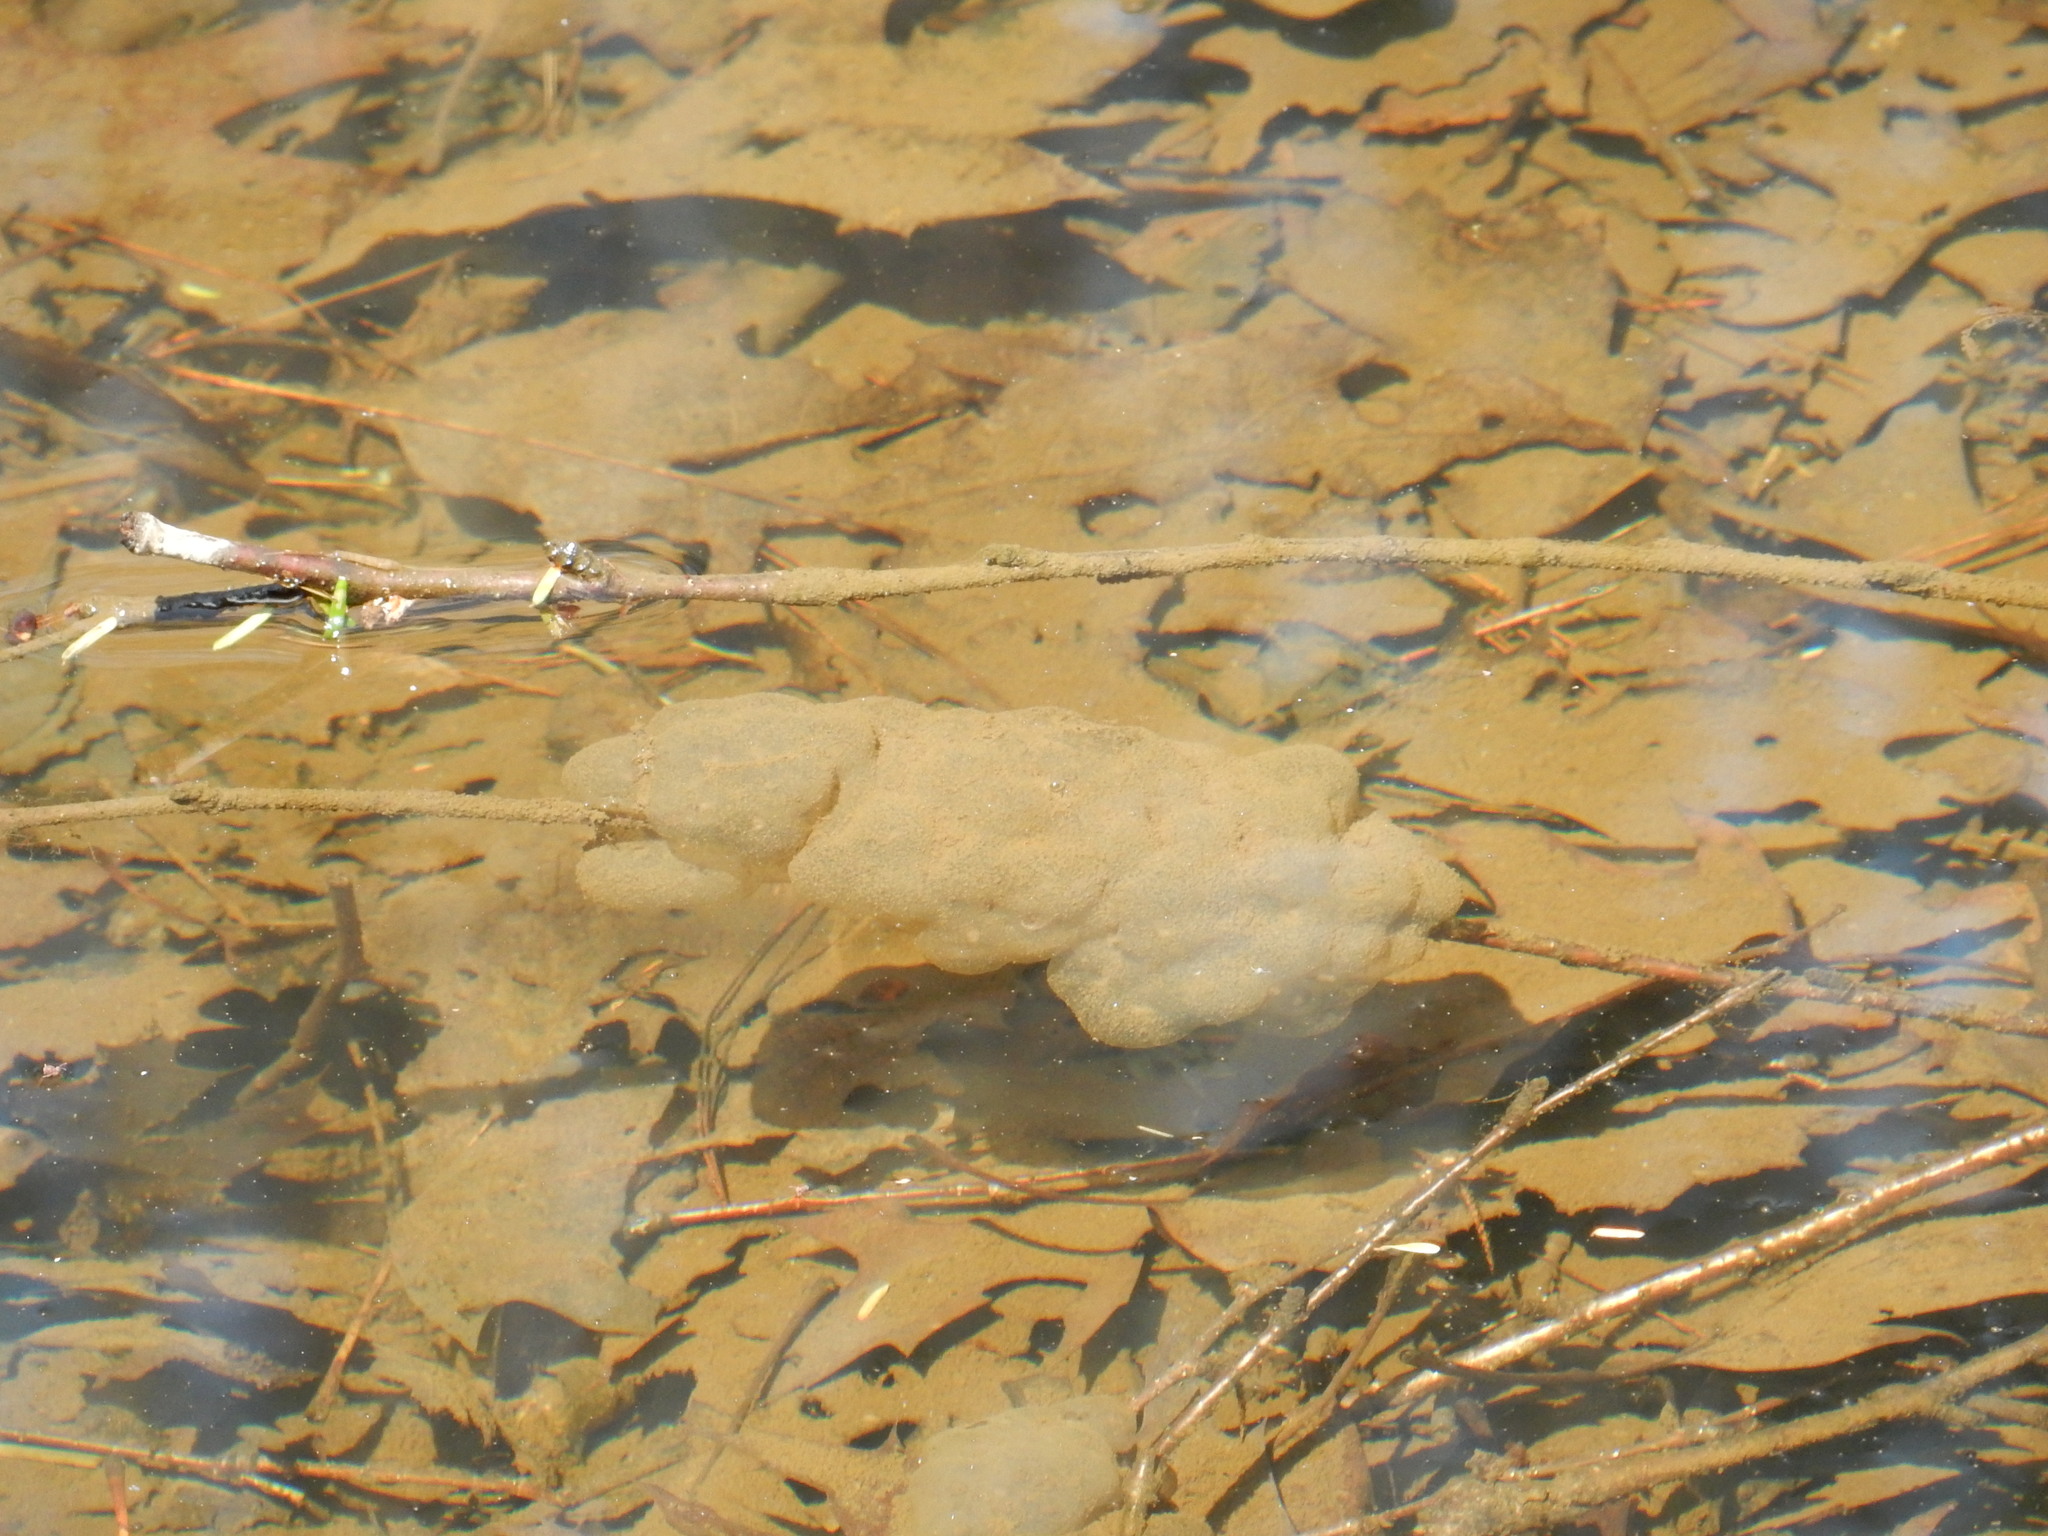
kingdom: Animalia
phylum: Chordata
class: Amphibia
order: Caudata
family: Ambystomatidae
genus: Ambystoma
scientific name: Ambystoma maculatum
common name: Spotted salamander
